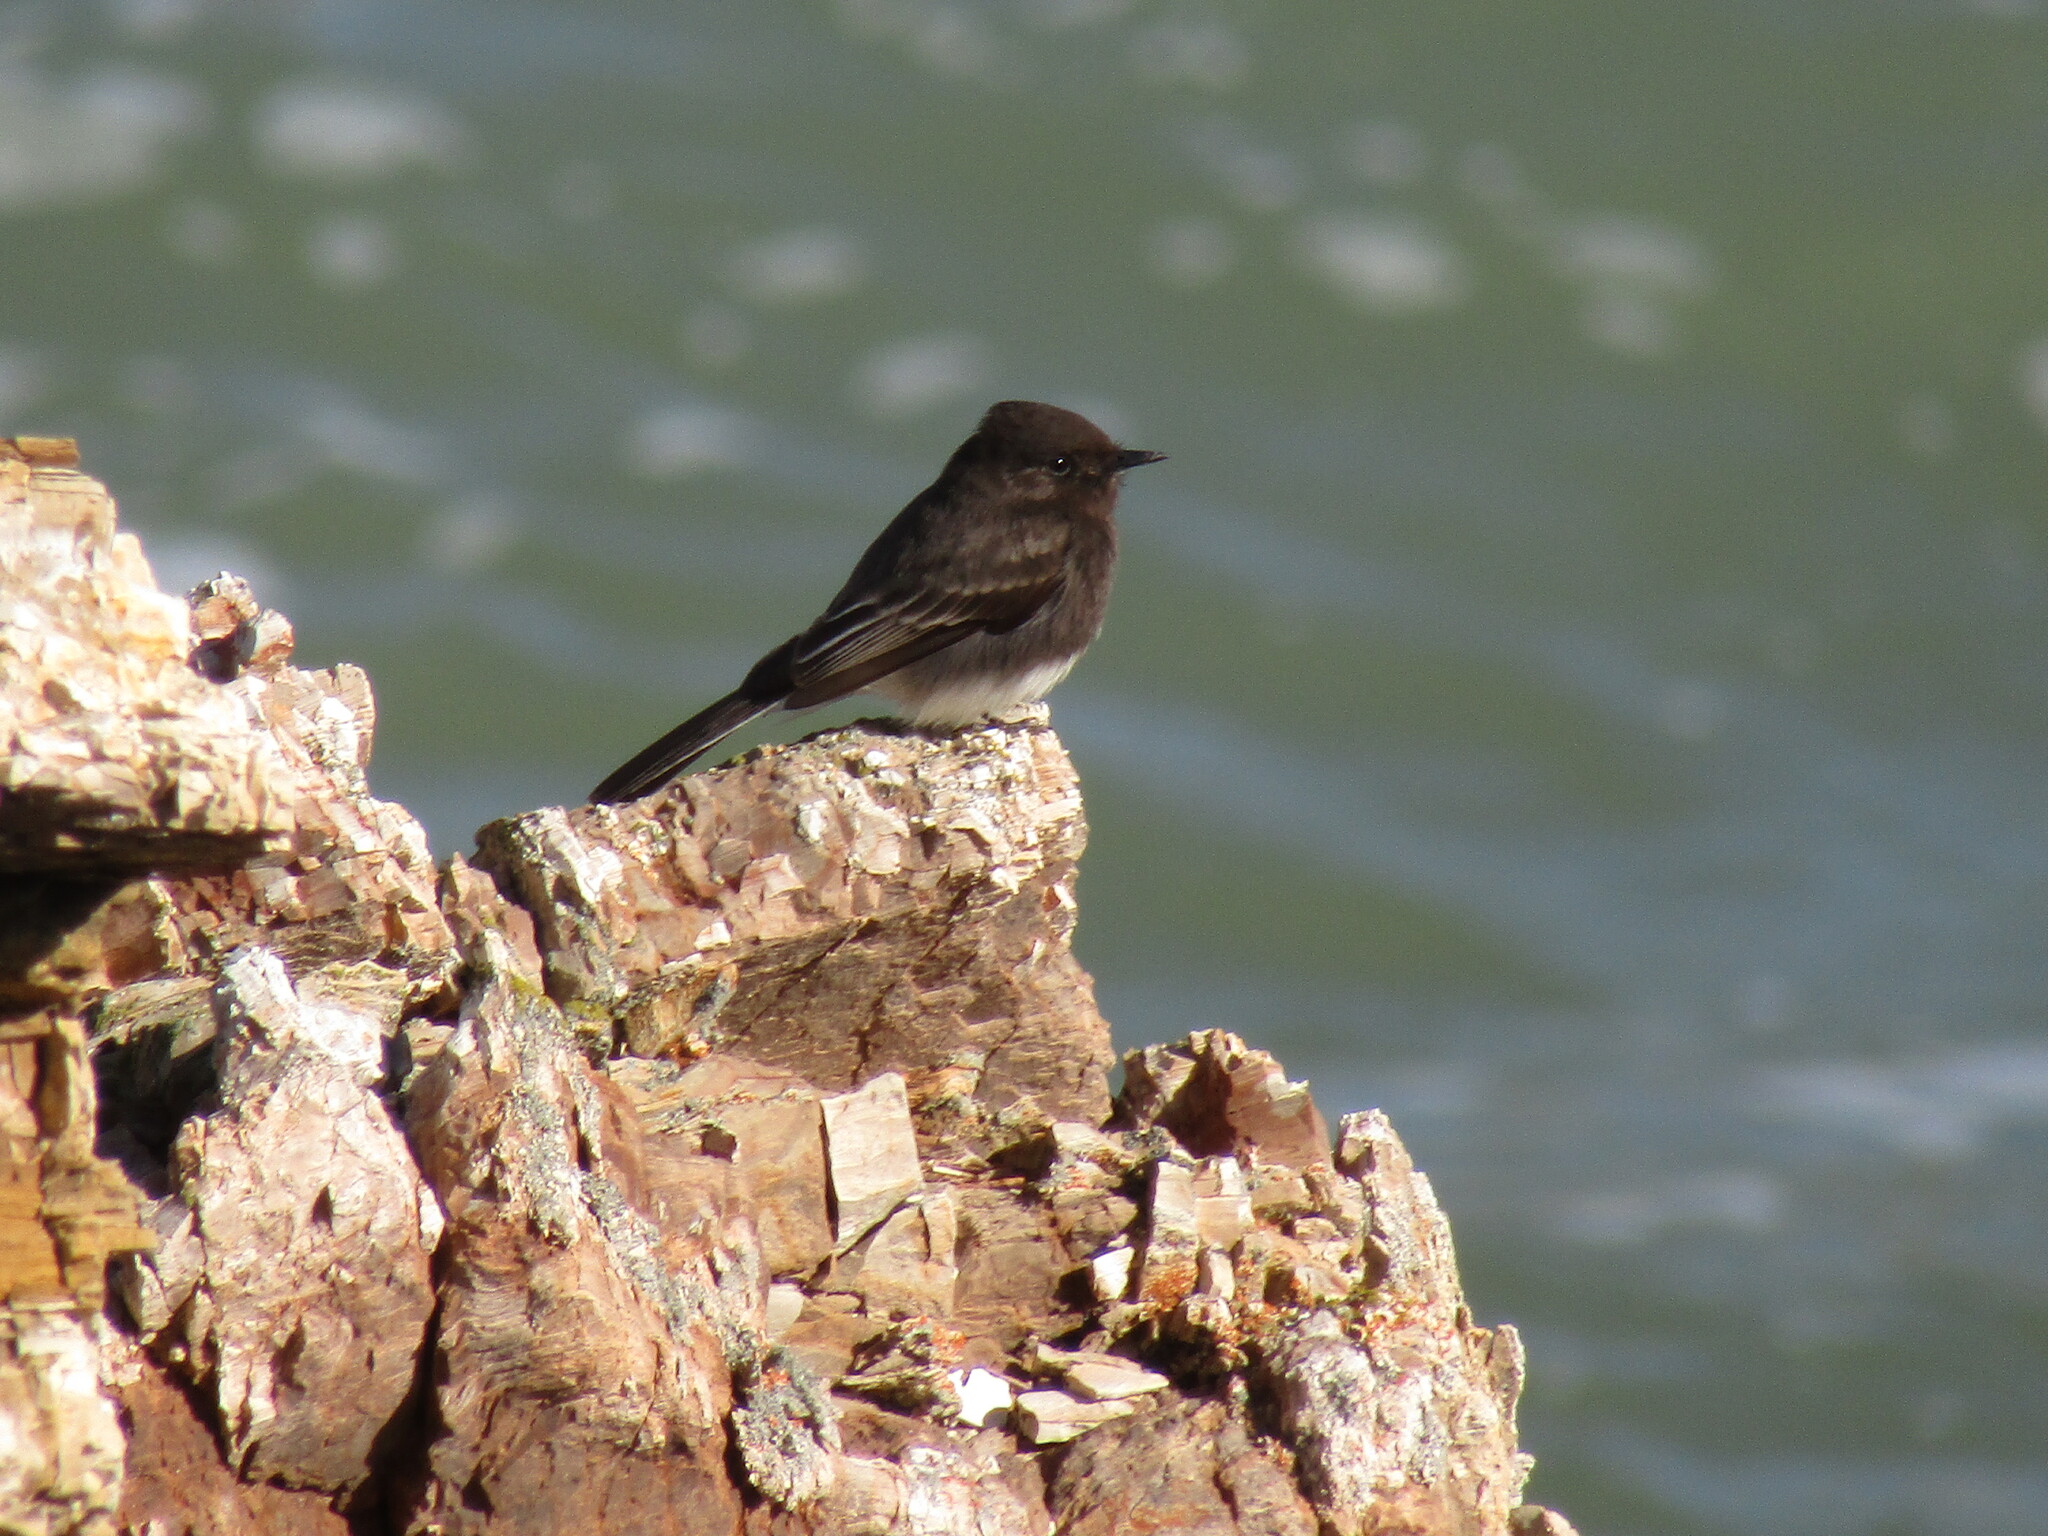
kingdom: Animalia
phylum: Chordata
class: Aves
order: Passeriformes
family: Tyrannidae
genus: Sayornis
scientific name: Sayornis nigricans
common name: Black phoebe
